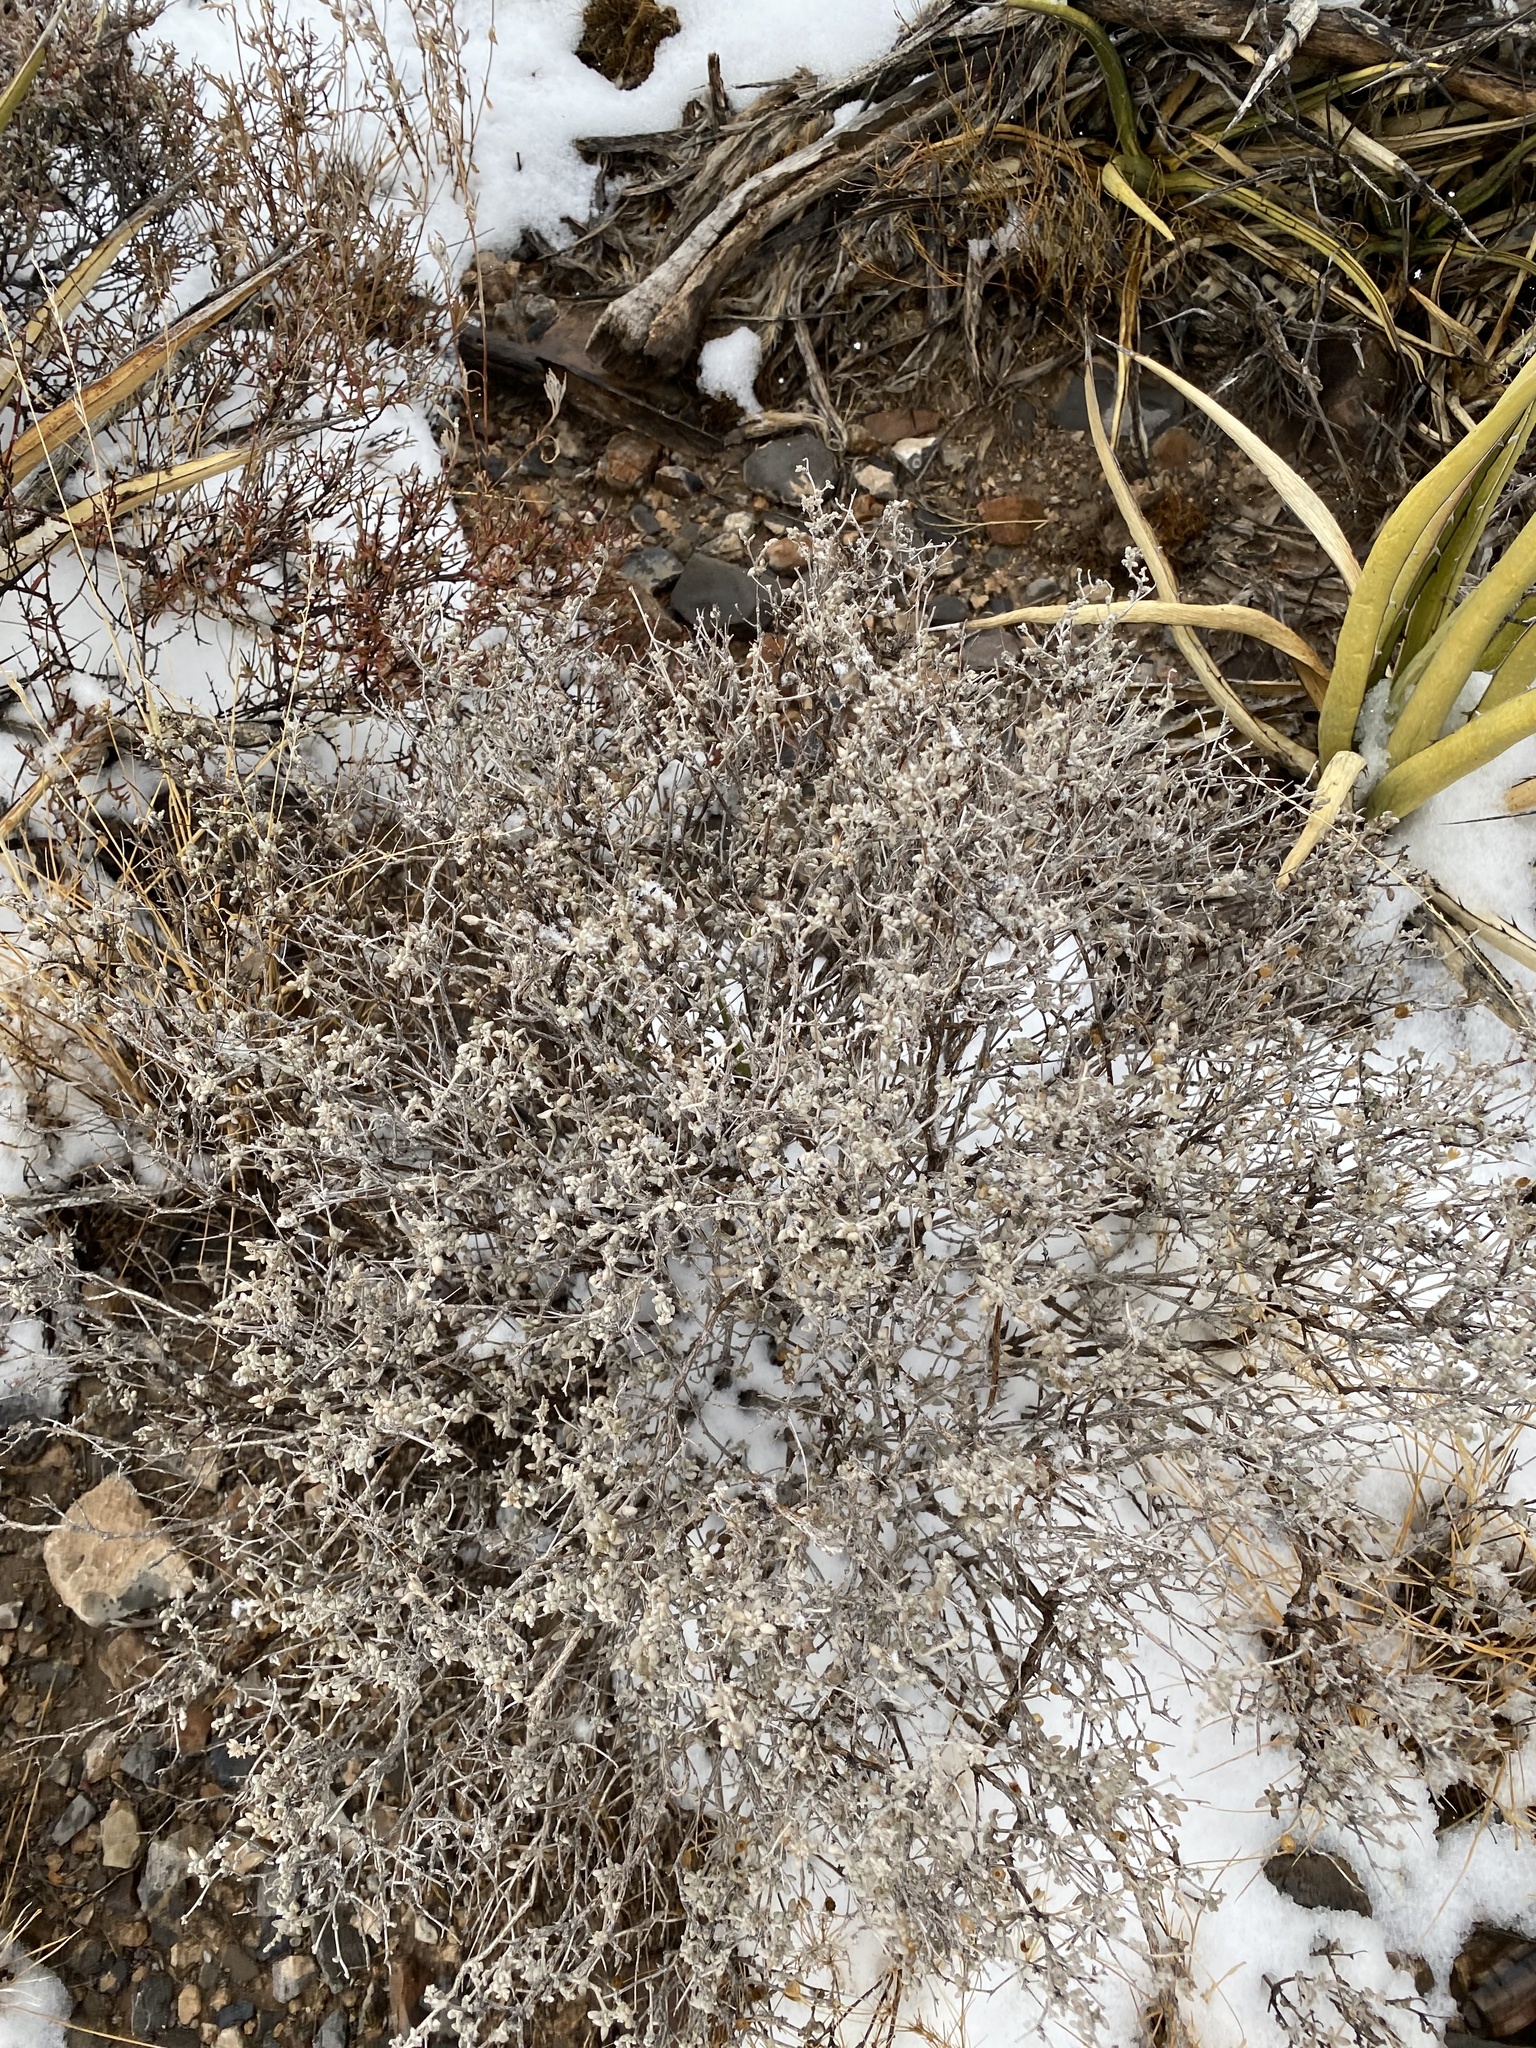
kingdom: Plantae
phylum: Tracheophyta
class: Magnoliopsida
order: Boraginales
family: Ehretiaceae
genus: Tiquilia
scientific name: Tiquilia canescens
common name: Hairy tiquilia
